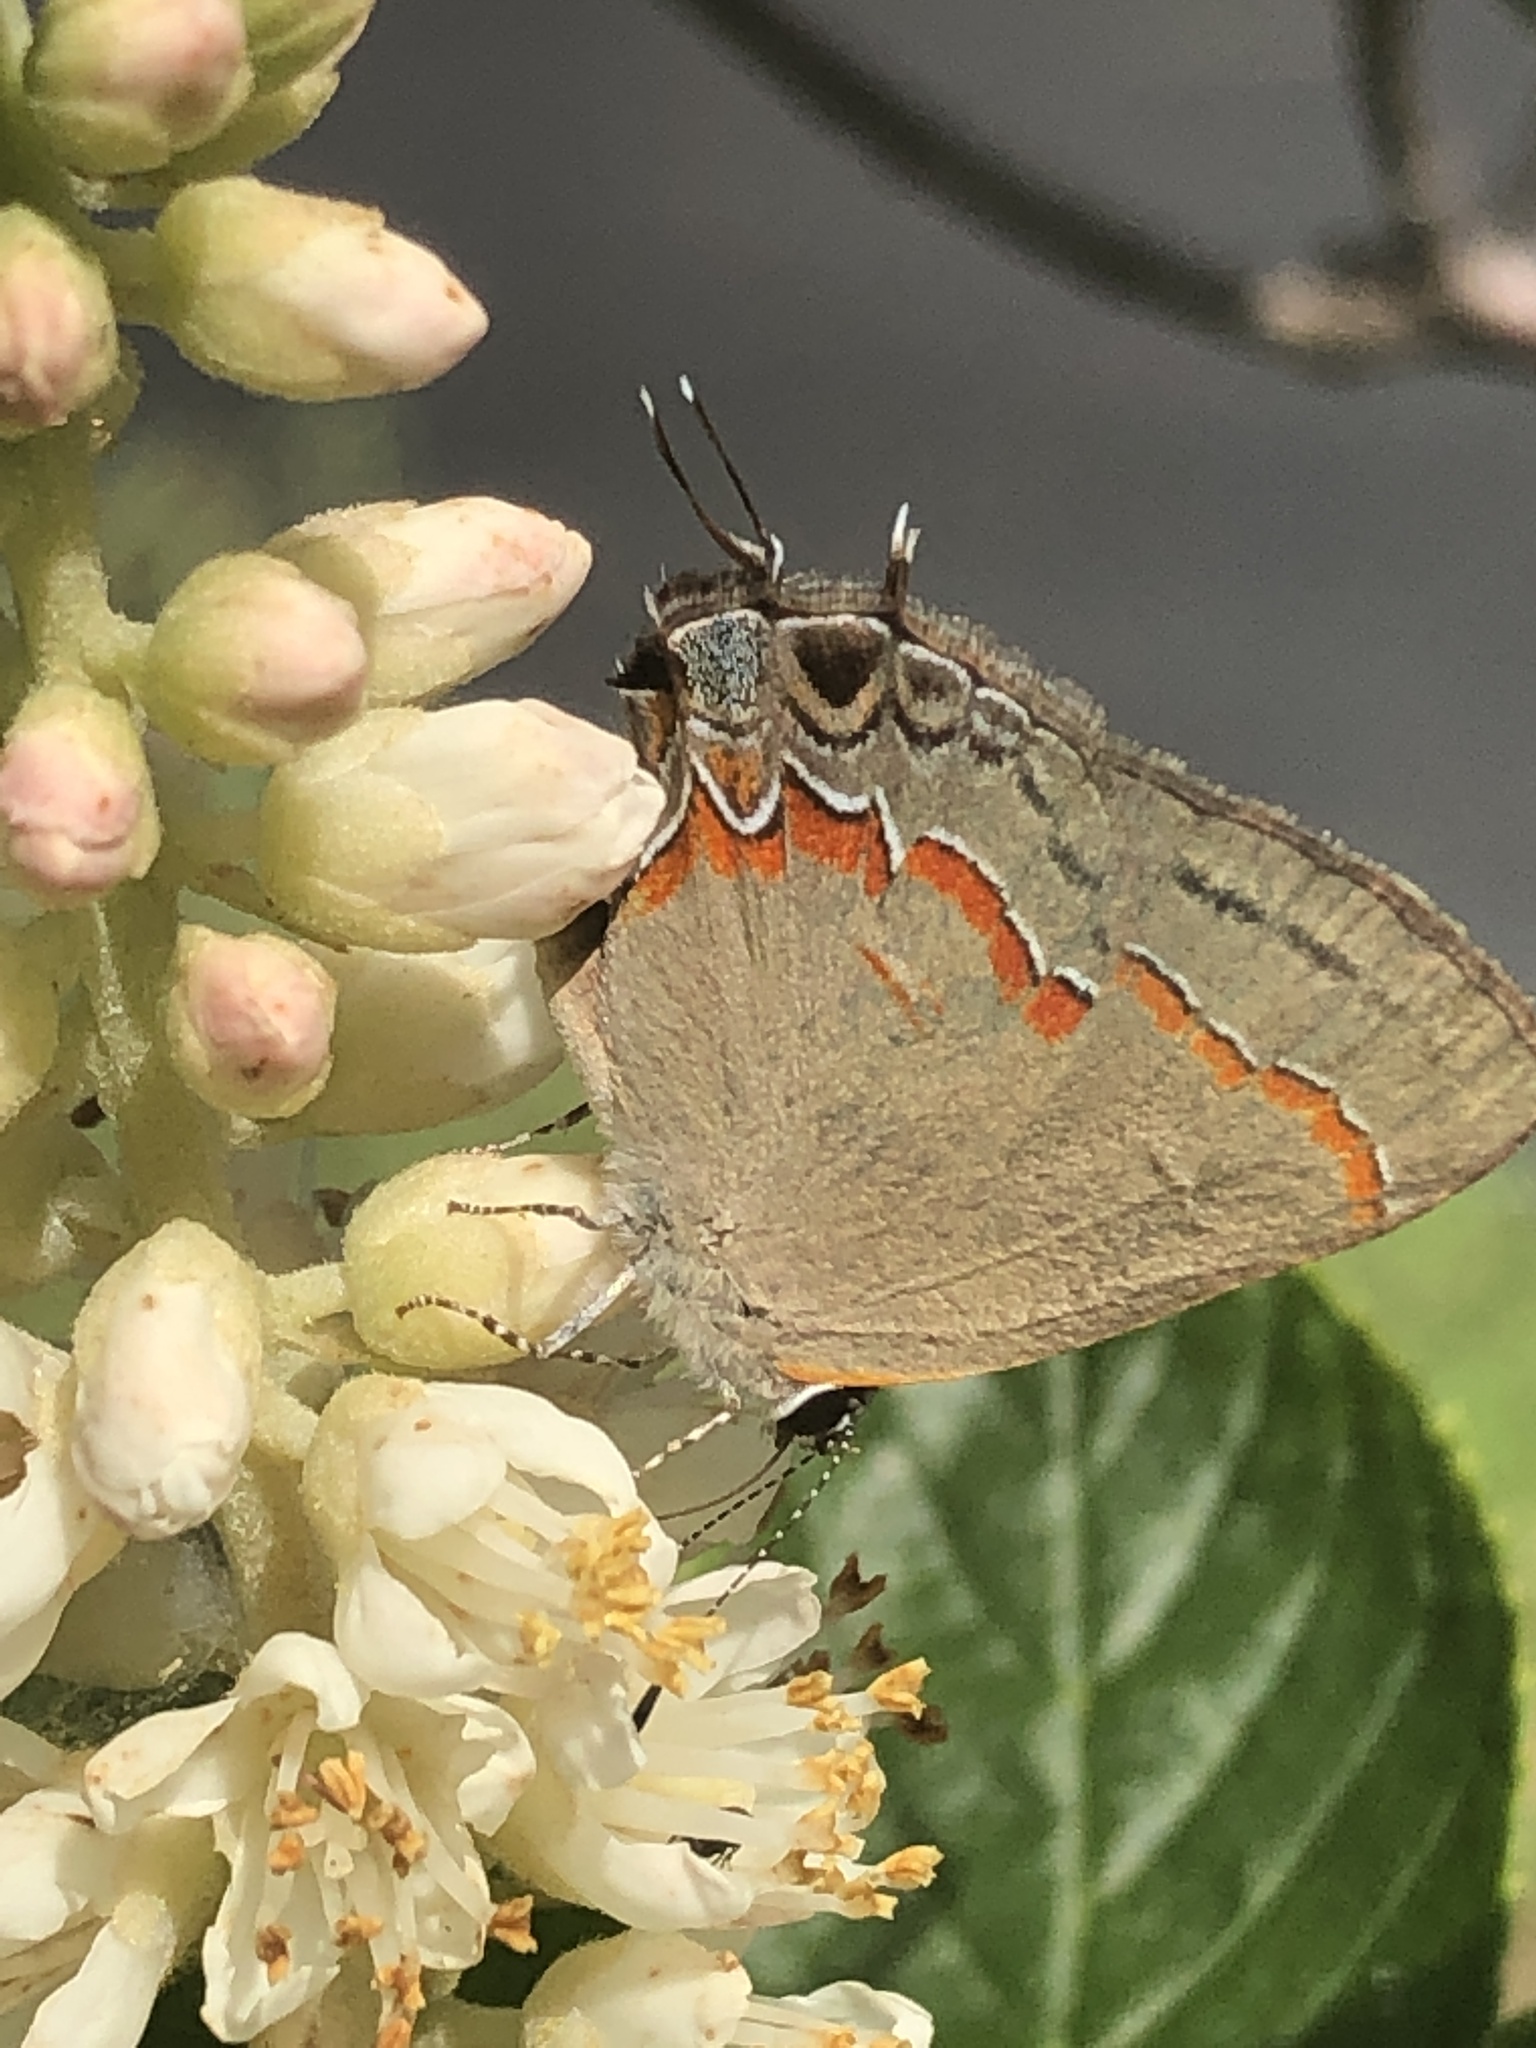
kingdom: Animalia
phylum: Arthropoda
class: Insecta
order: Lepidoptera
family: Lycaenidae
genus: Calycopis
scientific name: Calycopis cecrops
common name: Red-banded hairstreak
